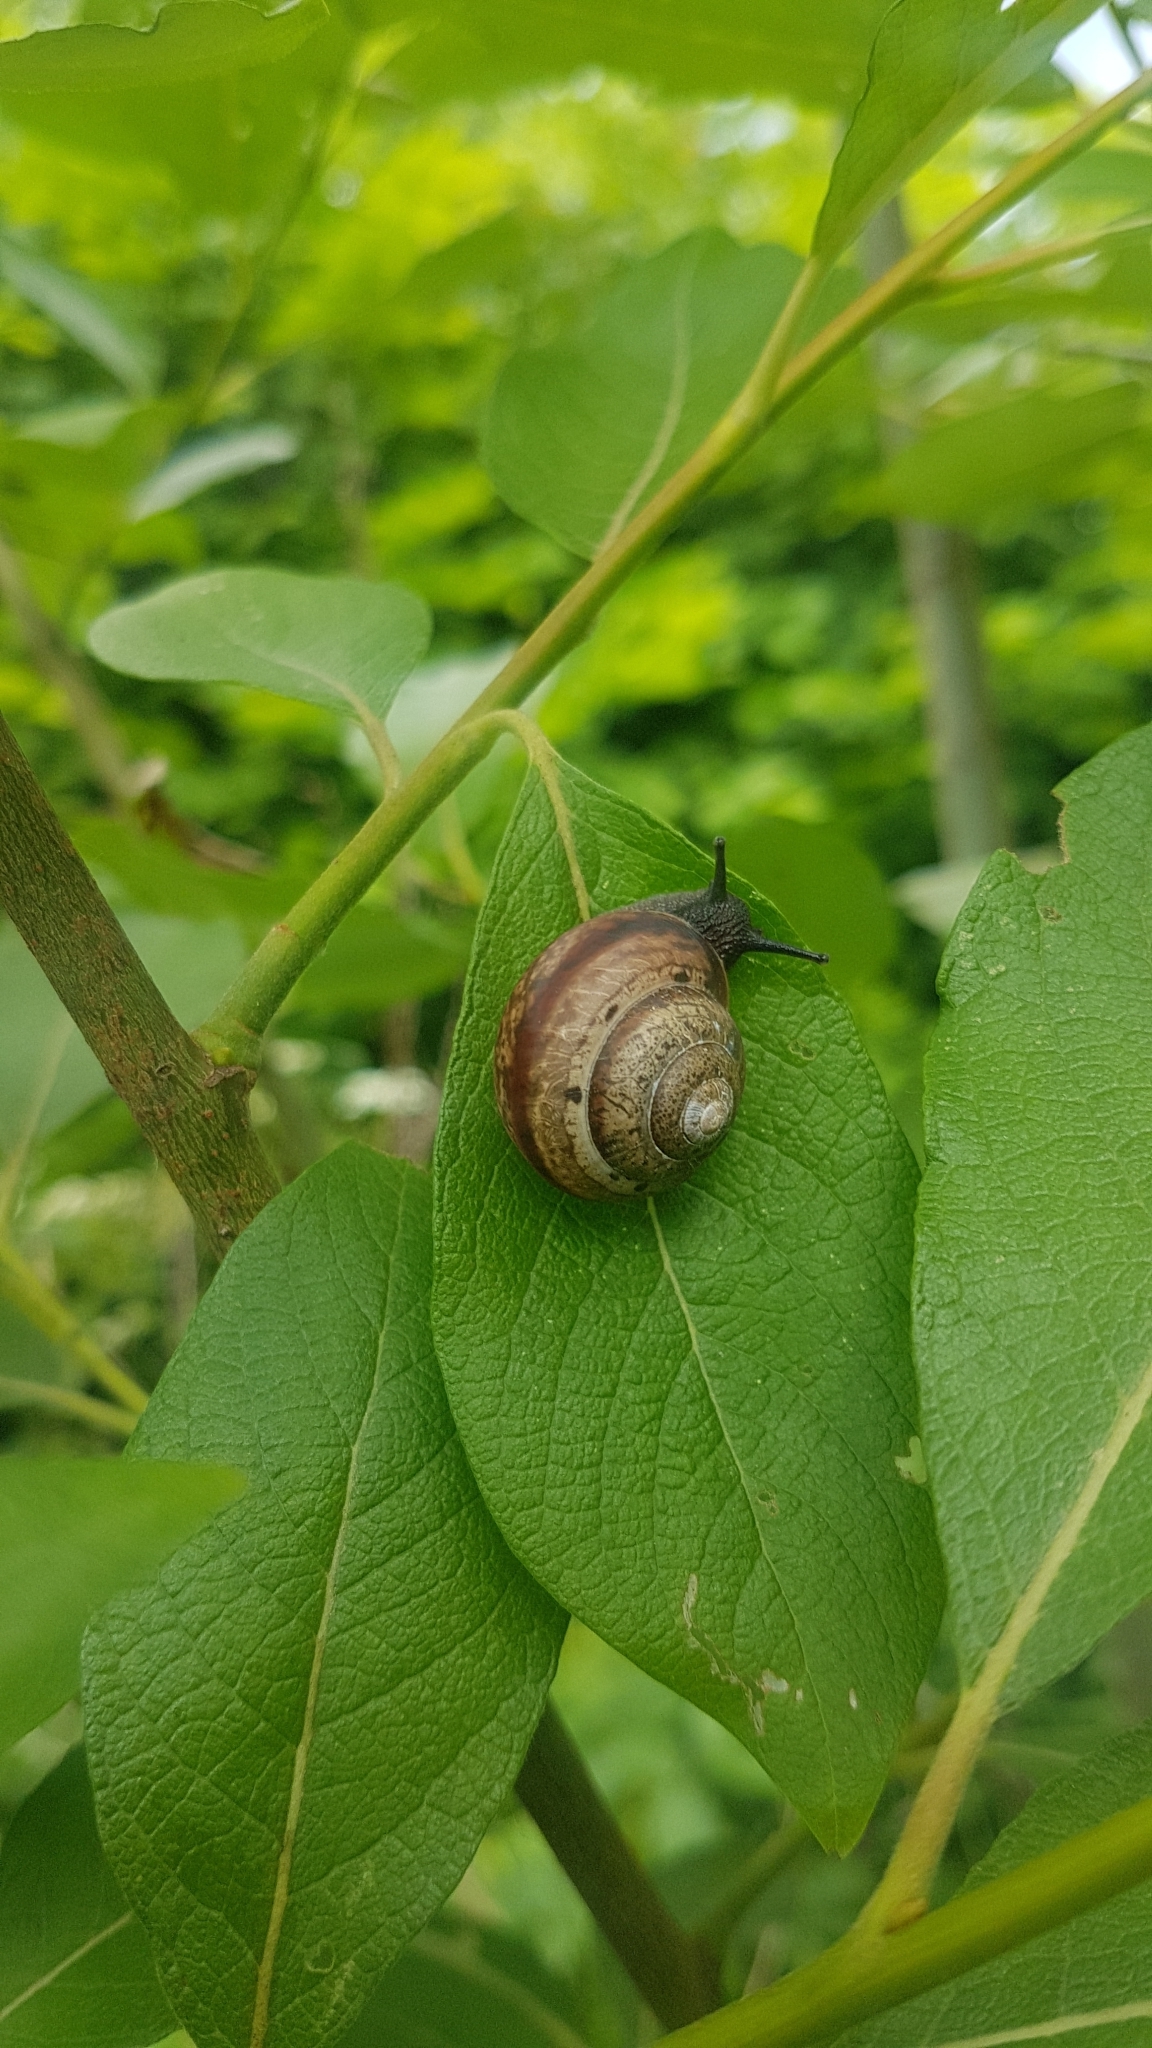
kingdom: Animalia
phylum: Mollusca
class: Gastropoda
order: Stylommatophora
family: Camaenidae
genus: Fruticicola
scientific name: Fruticicola fruticum
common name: Bush snail
